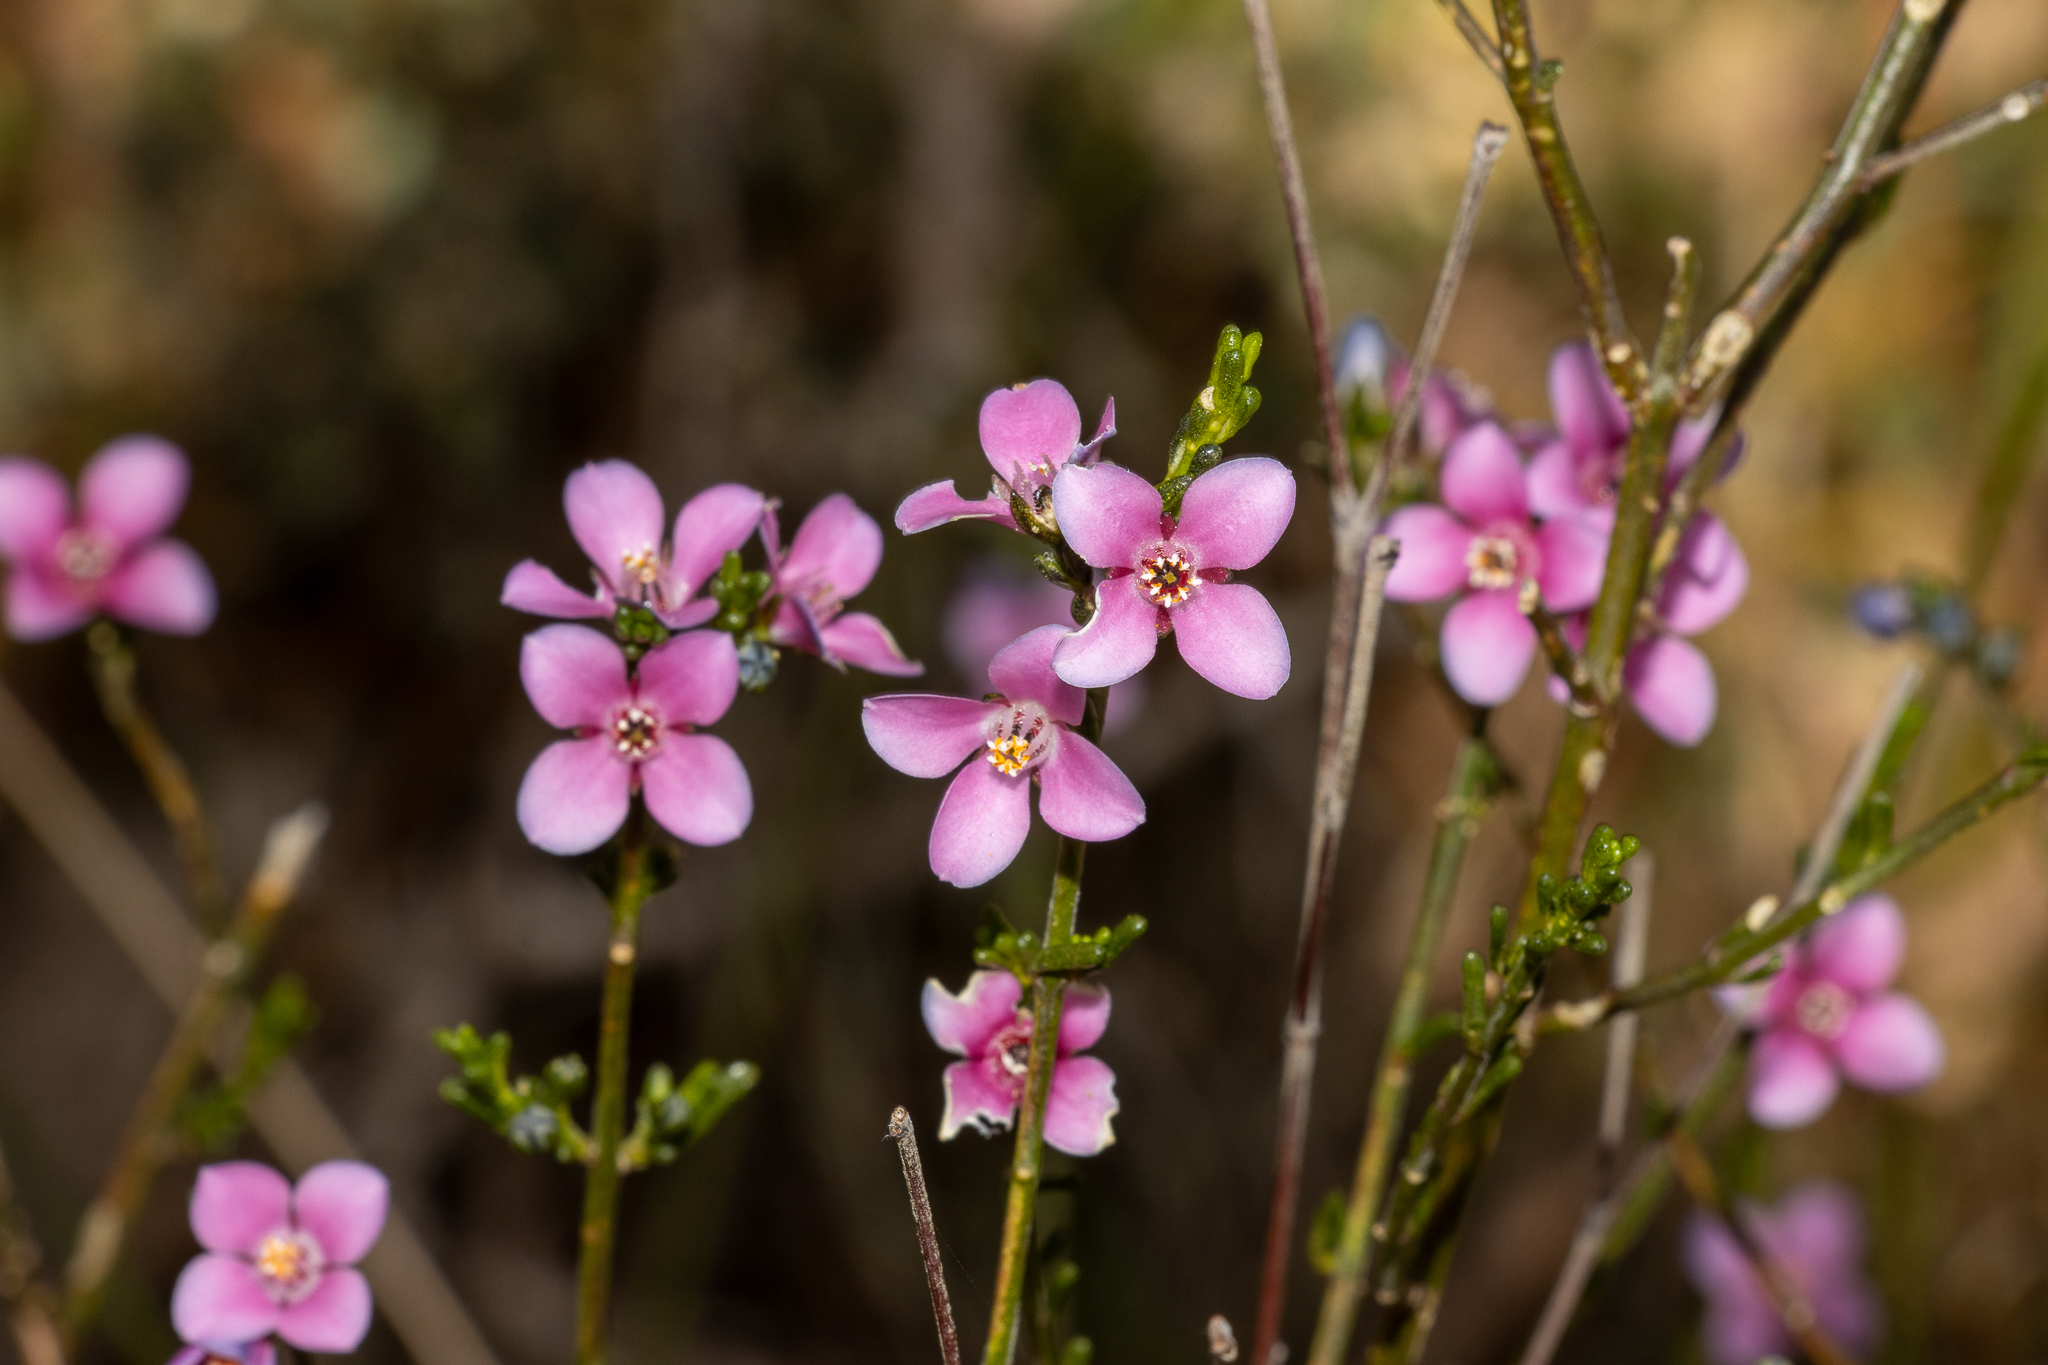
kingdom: Plantae
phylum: Tracheophyta
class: Magnoliopsida
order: Sapindales
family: Rutaceae
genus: Cyanothamnus
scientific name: Cyanothamnus coerulescens
